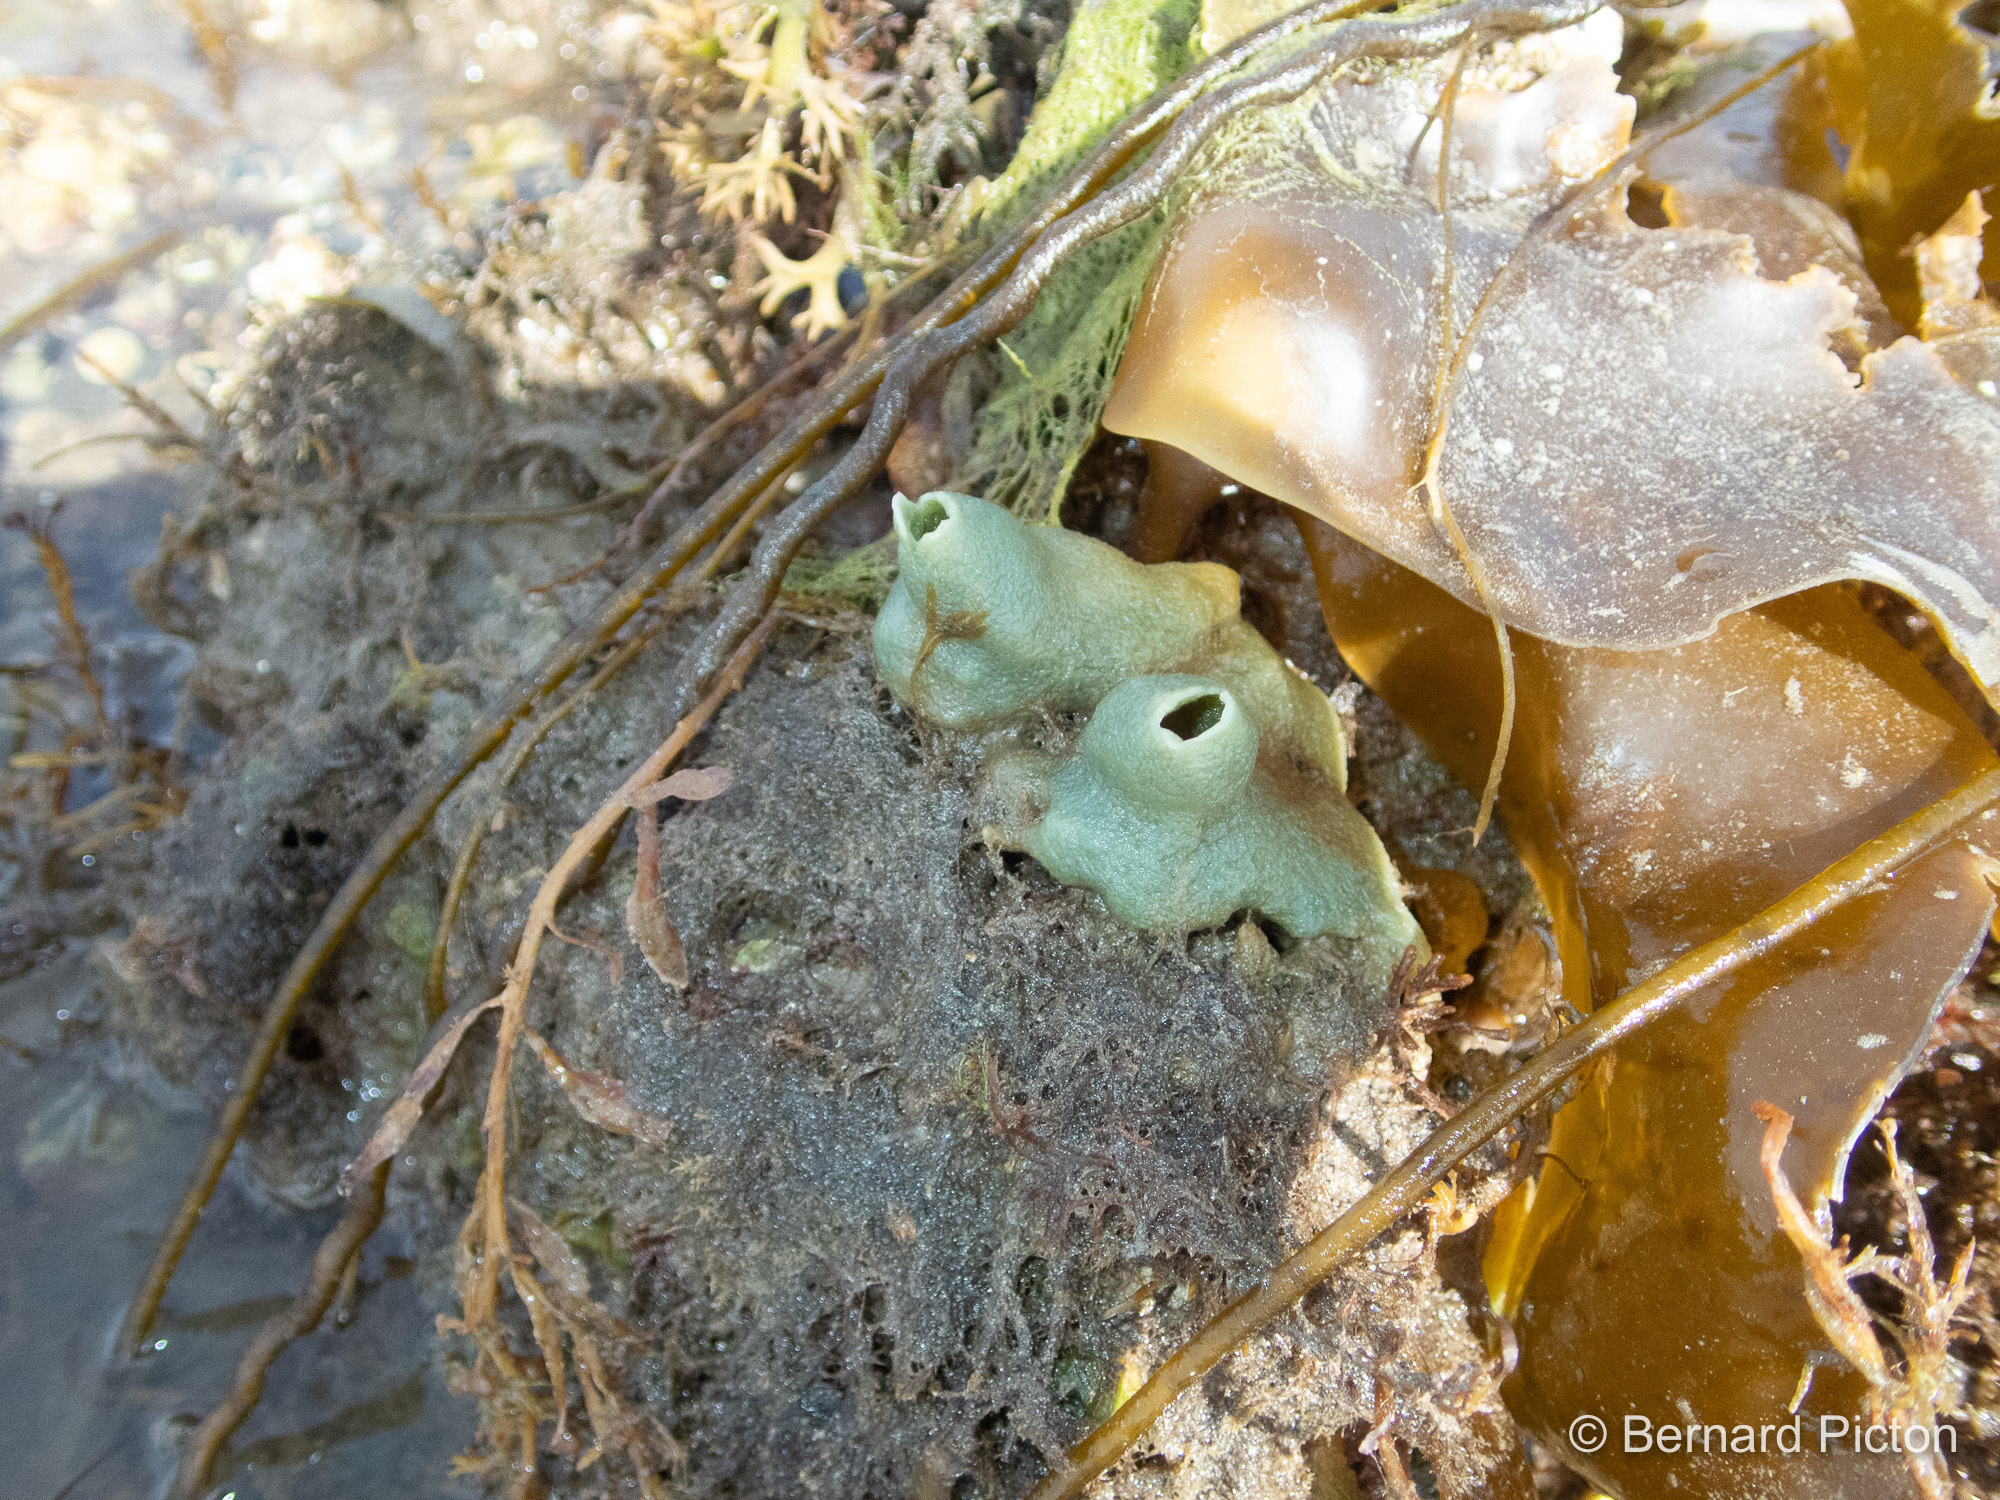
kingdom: Animalia
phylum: Porifera
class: Demospongiae
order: Suberitida
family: Halichondriidae
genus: Halichondria
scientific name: Halichondria panicea
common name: Breadcrumb sponge
